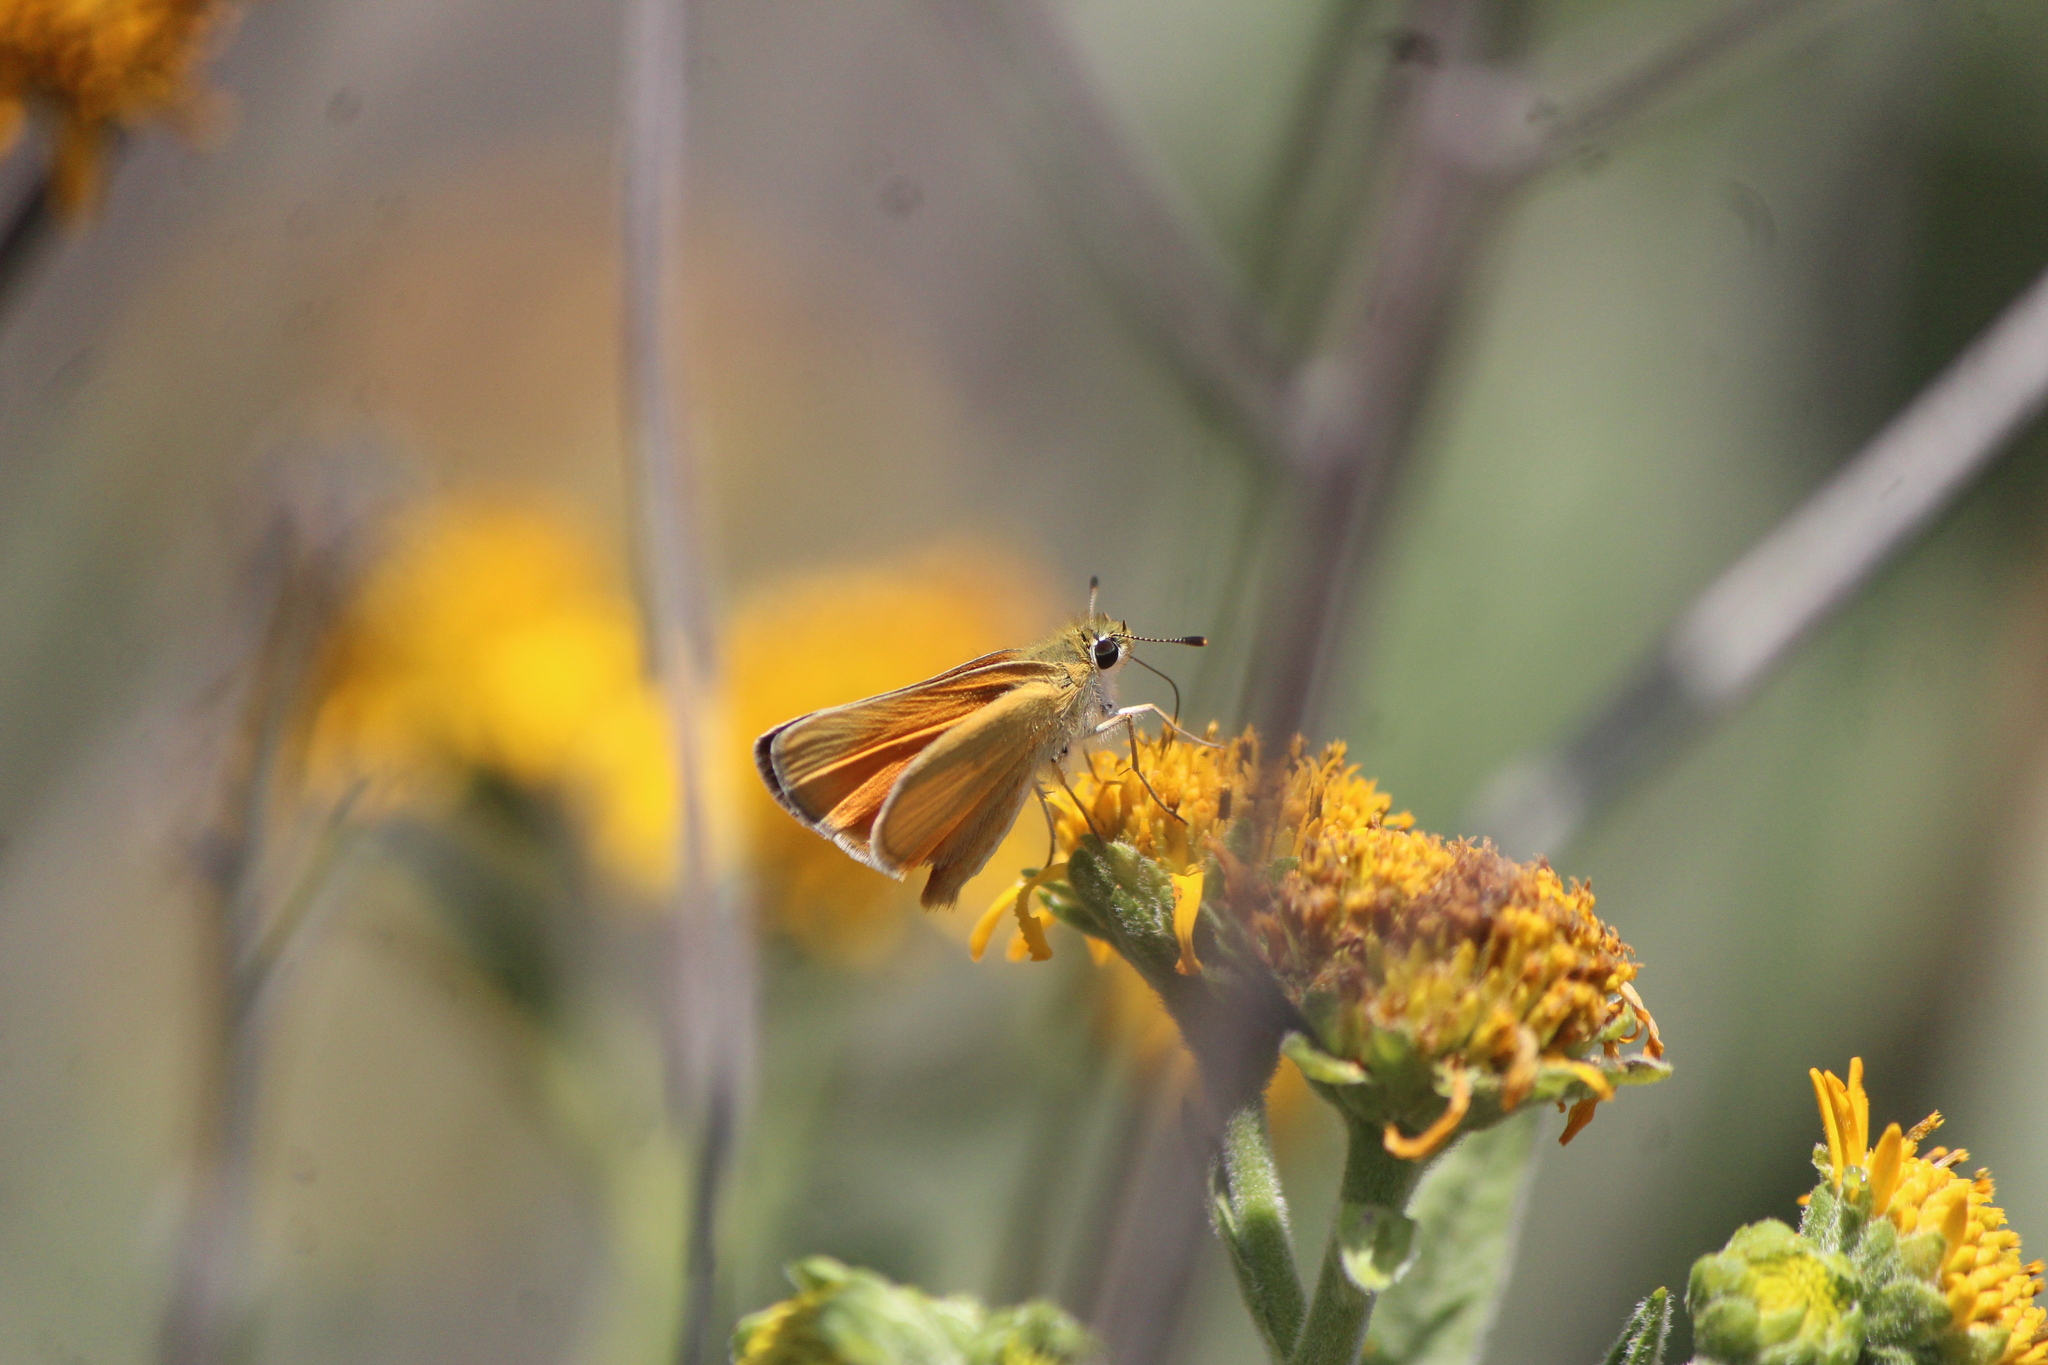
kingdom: Animalia
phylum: Arthropoda
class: Insecta
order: Lepidoptera
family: Hesperiidae
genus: Copaeodes
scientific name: Copaeodes aurantiaca
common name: Orange skipperling
